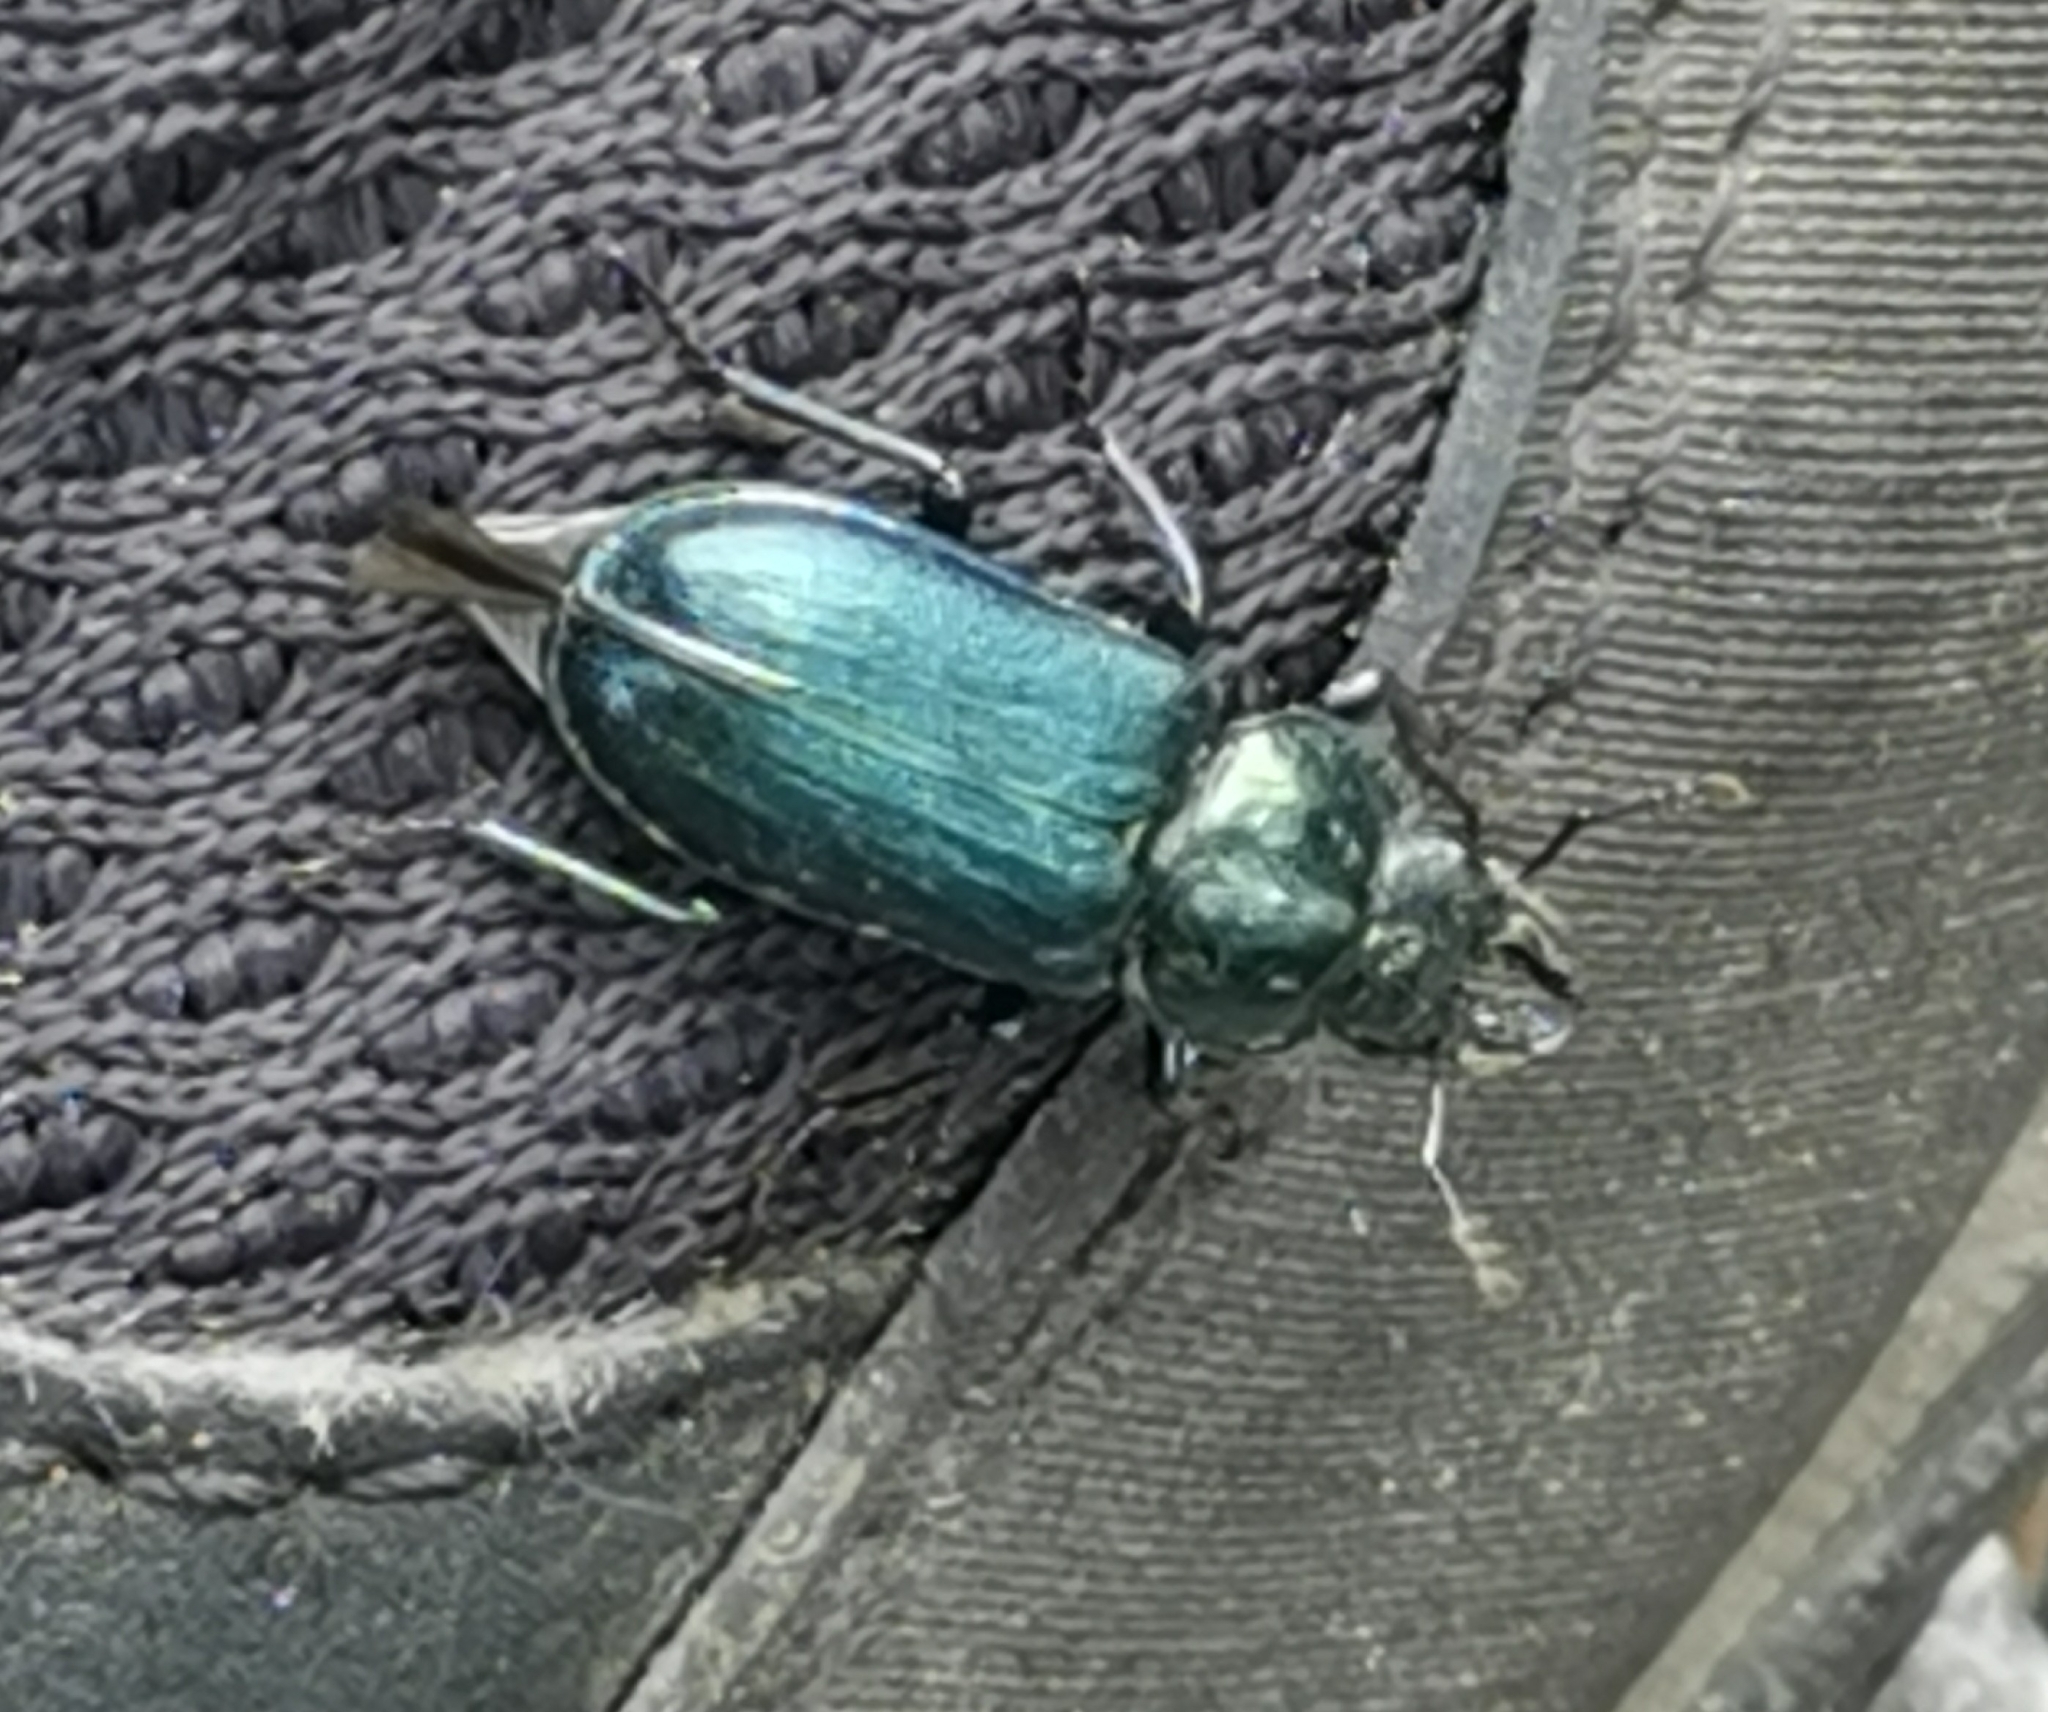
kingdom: Animalia
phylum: Arthropoda
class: Insecta
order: Coleoptera
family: Lucanidae
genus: Platycerus
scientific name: Platycerus caprea
